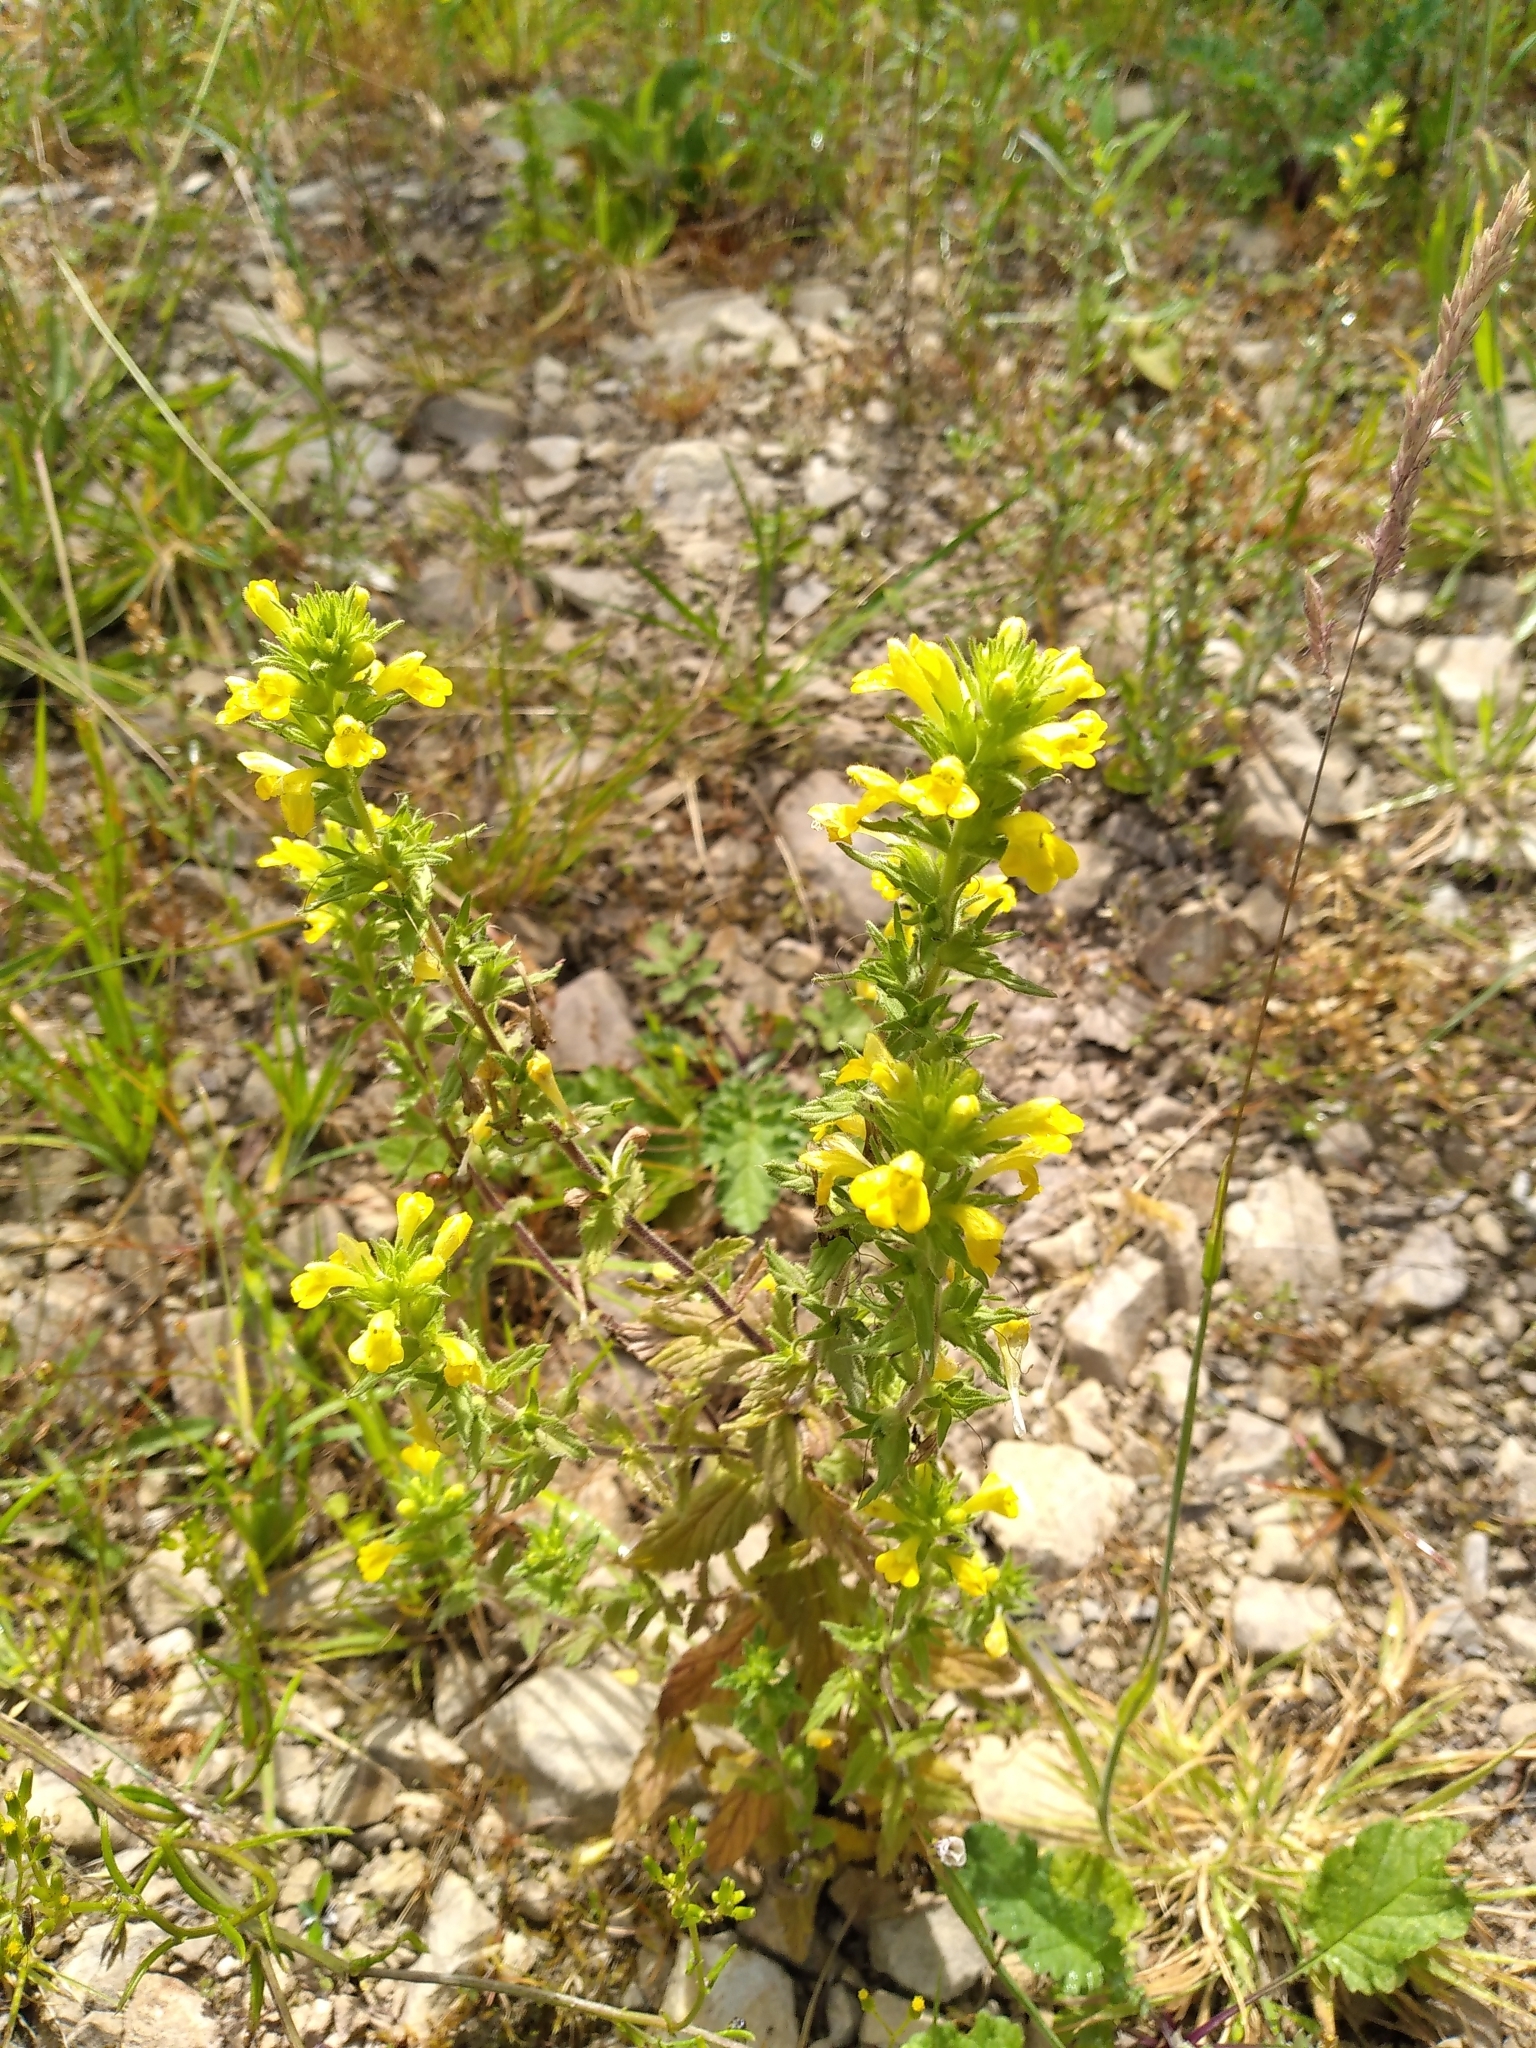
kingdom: Plantae
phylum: Tracheophyta
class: Magnoliopsida
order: Lamiales
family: Orobanchaceae
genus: Bellardia
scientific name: Bellardia viscosa
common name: Sticky parentucellia
